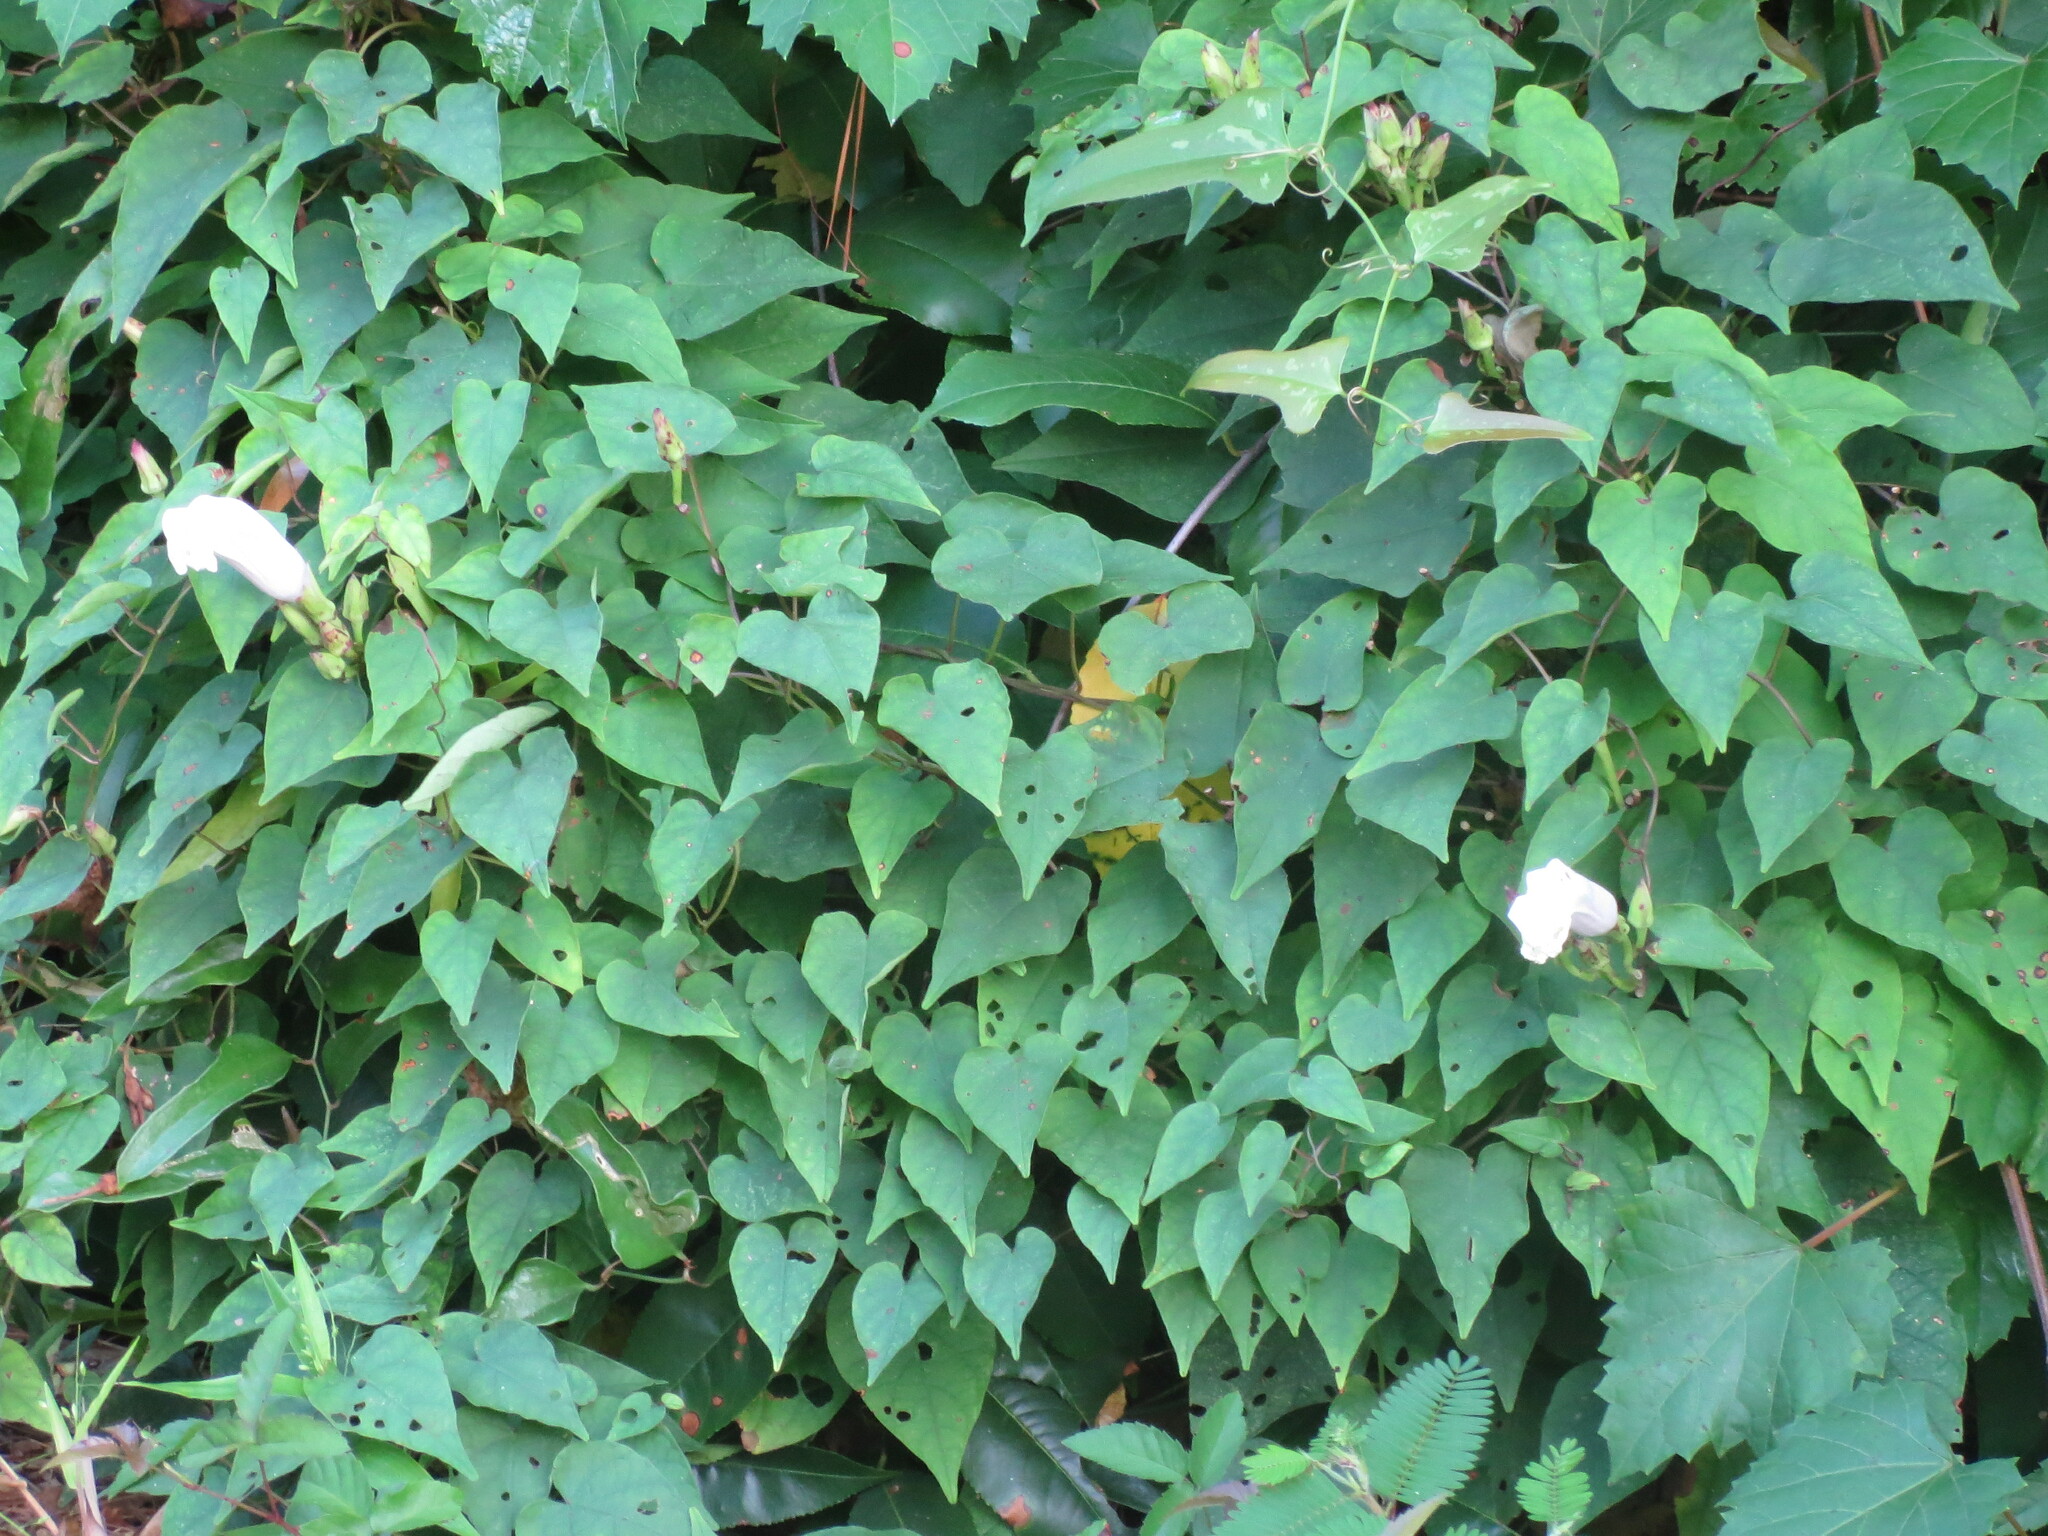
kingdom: Plantae
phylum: Tracheophyta
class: Magnoliopsida
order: Solanales
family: Convolvulaceae
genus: Ipomoea
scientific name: Ipomoea pandurata
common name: Man-of-the-earth
